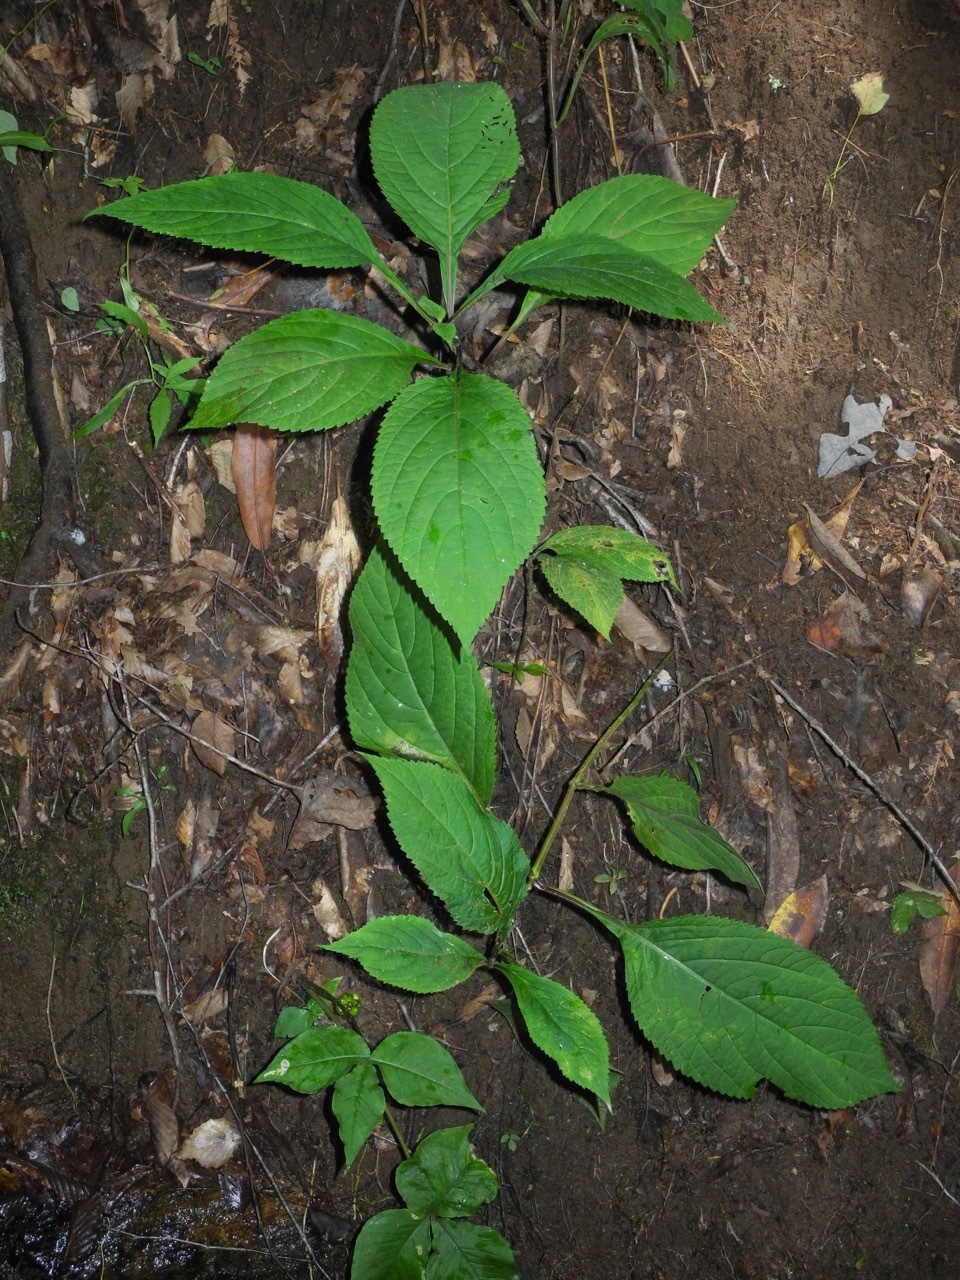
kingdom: Plantae
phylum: Tracheophyta
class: Magnoliopsida
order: Lamiales
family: Lamiaceae
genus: Collinsonia
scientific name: Collinsonia canadensis
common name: Northern horsebalm
